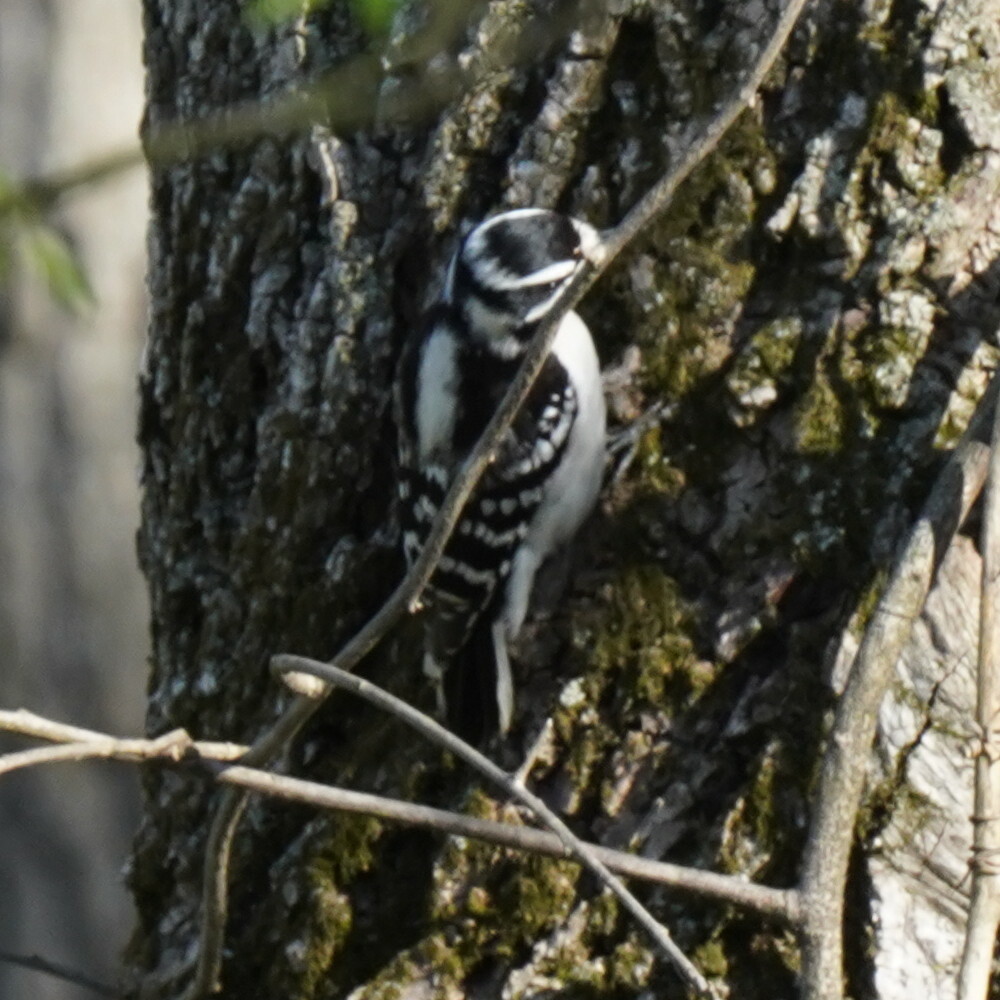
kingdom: Animalia
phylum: Chordata
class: Aves
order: Piciformes
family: Picidae
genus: Dryobates
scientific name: Dryobates pubescens
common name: Downy woodpecker
